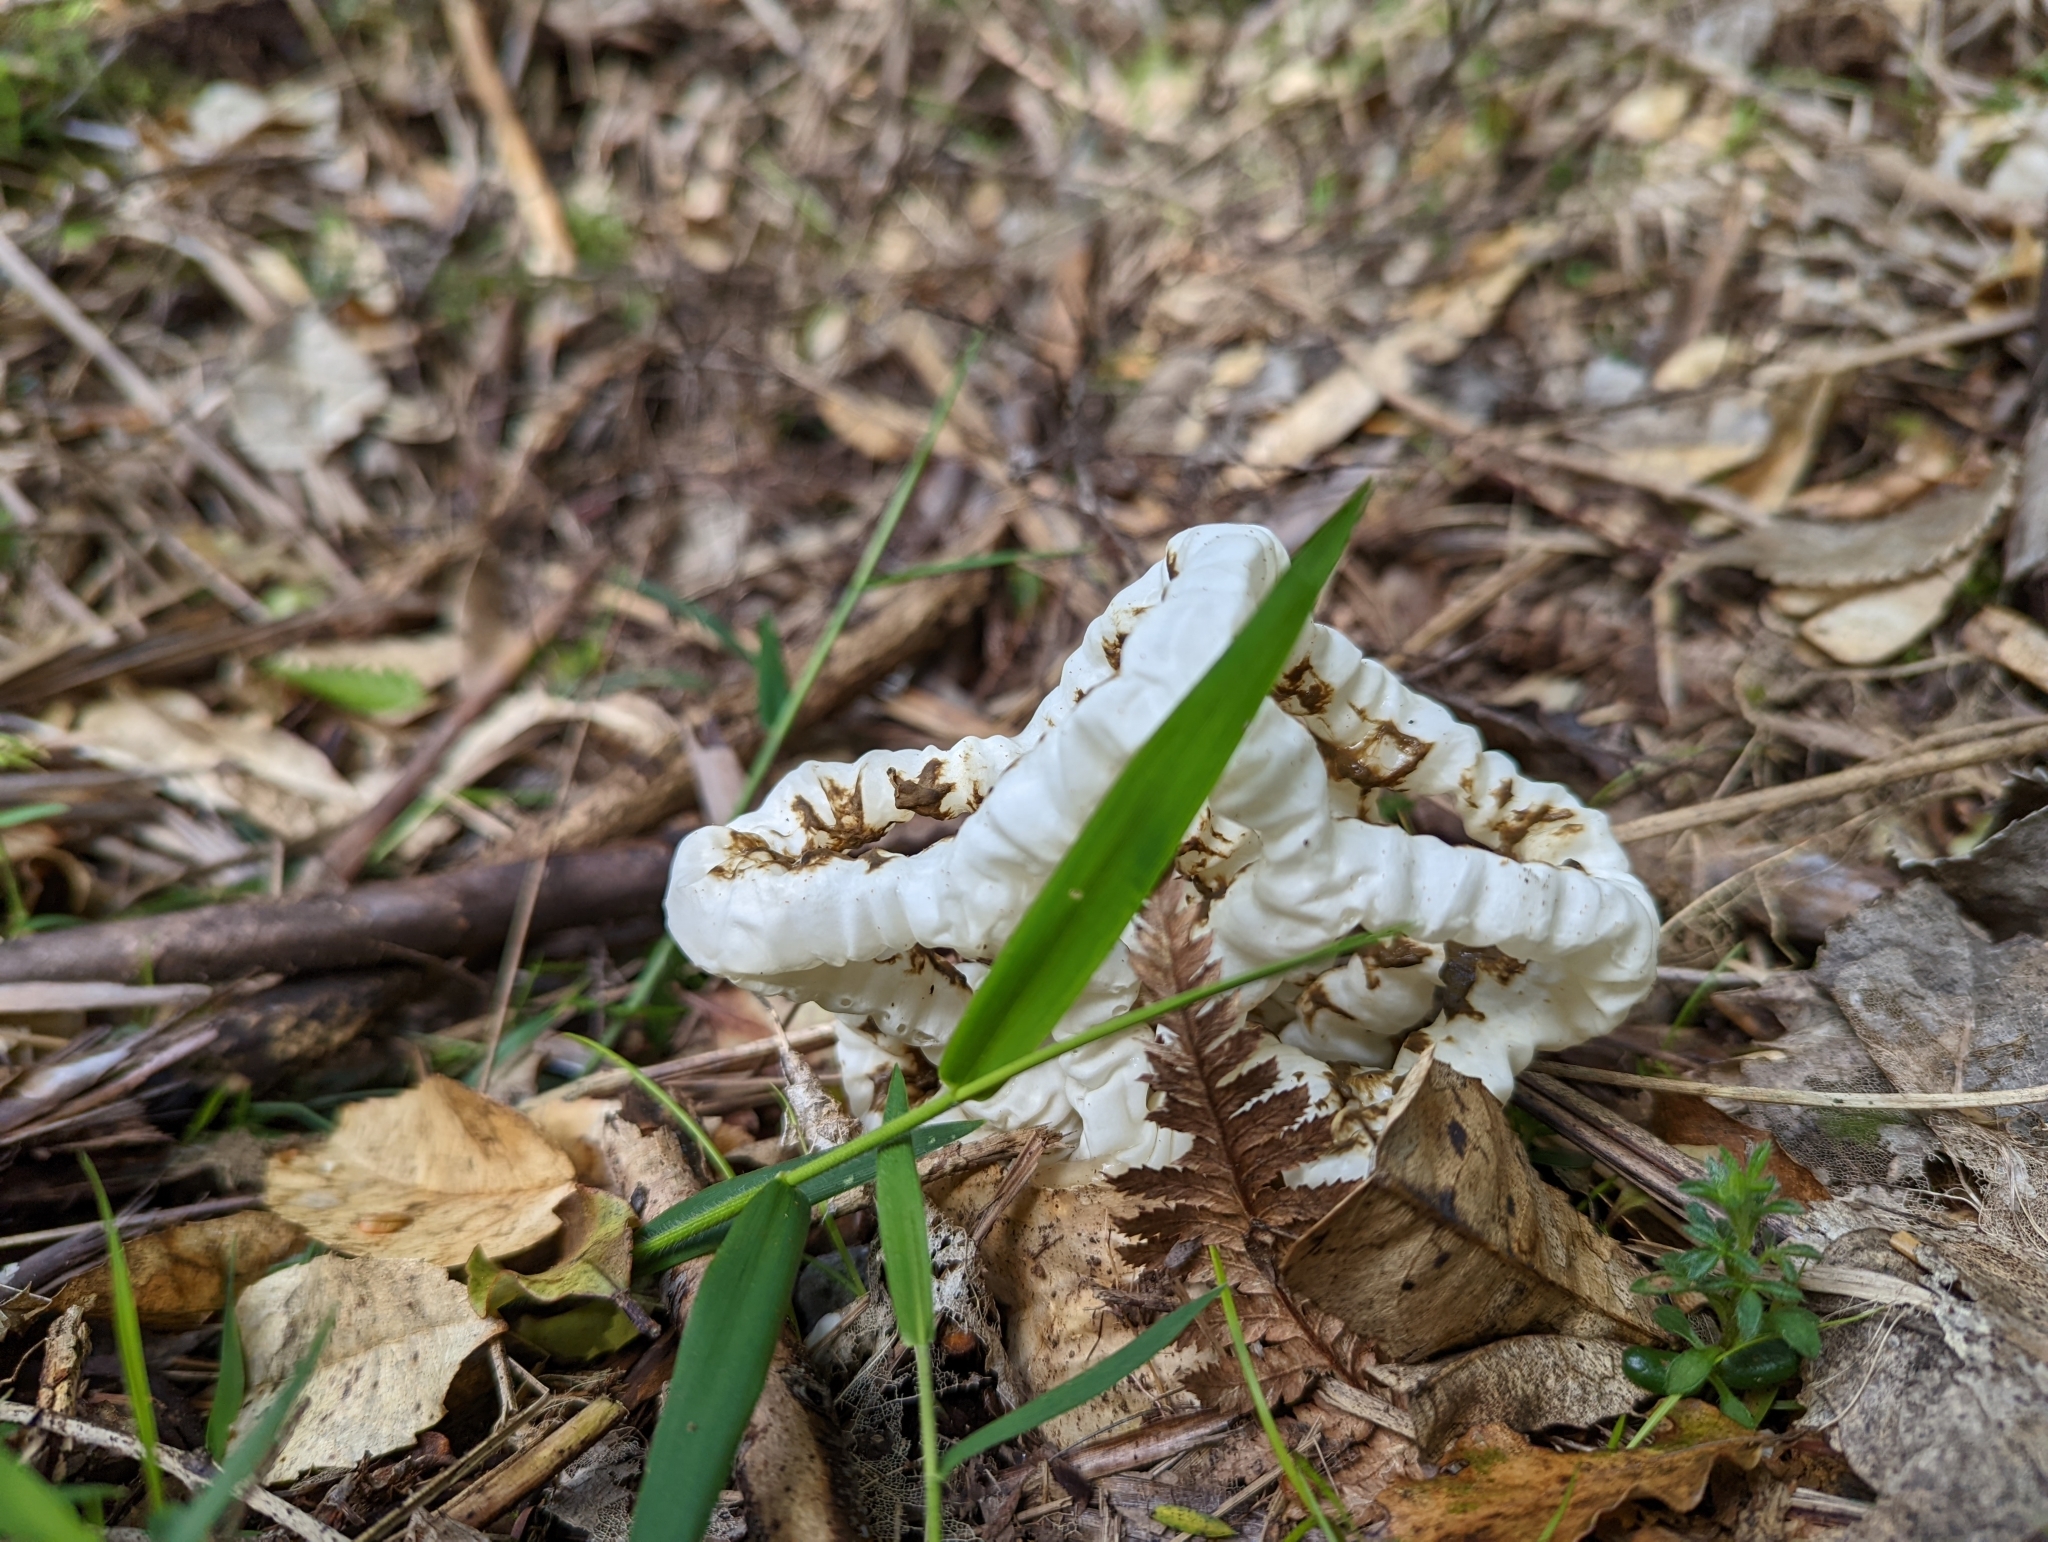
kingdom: Fungi
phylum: Basidiomycota
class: Agaricomycetes
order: Phallales
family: Phallaceae
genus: Ileodictyon
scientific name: Ileodictyon cibarium
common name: Basket fungus
